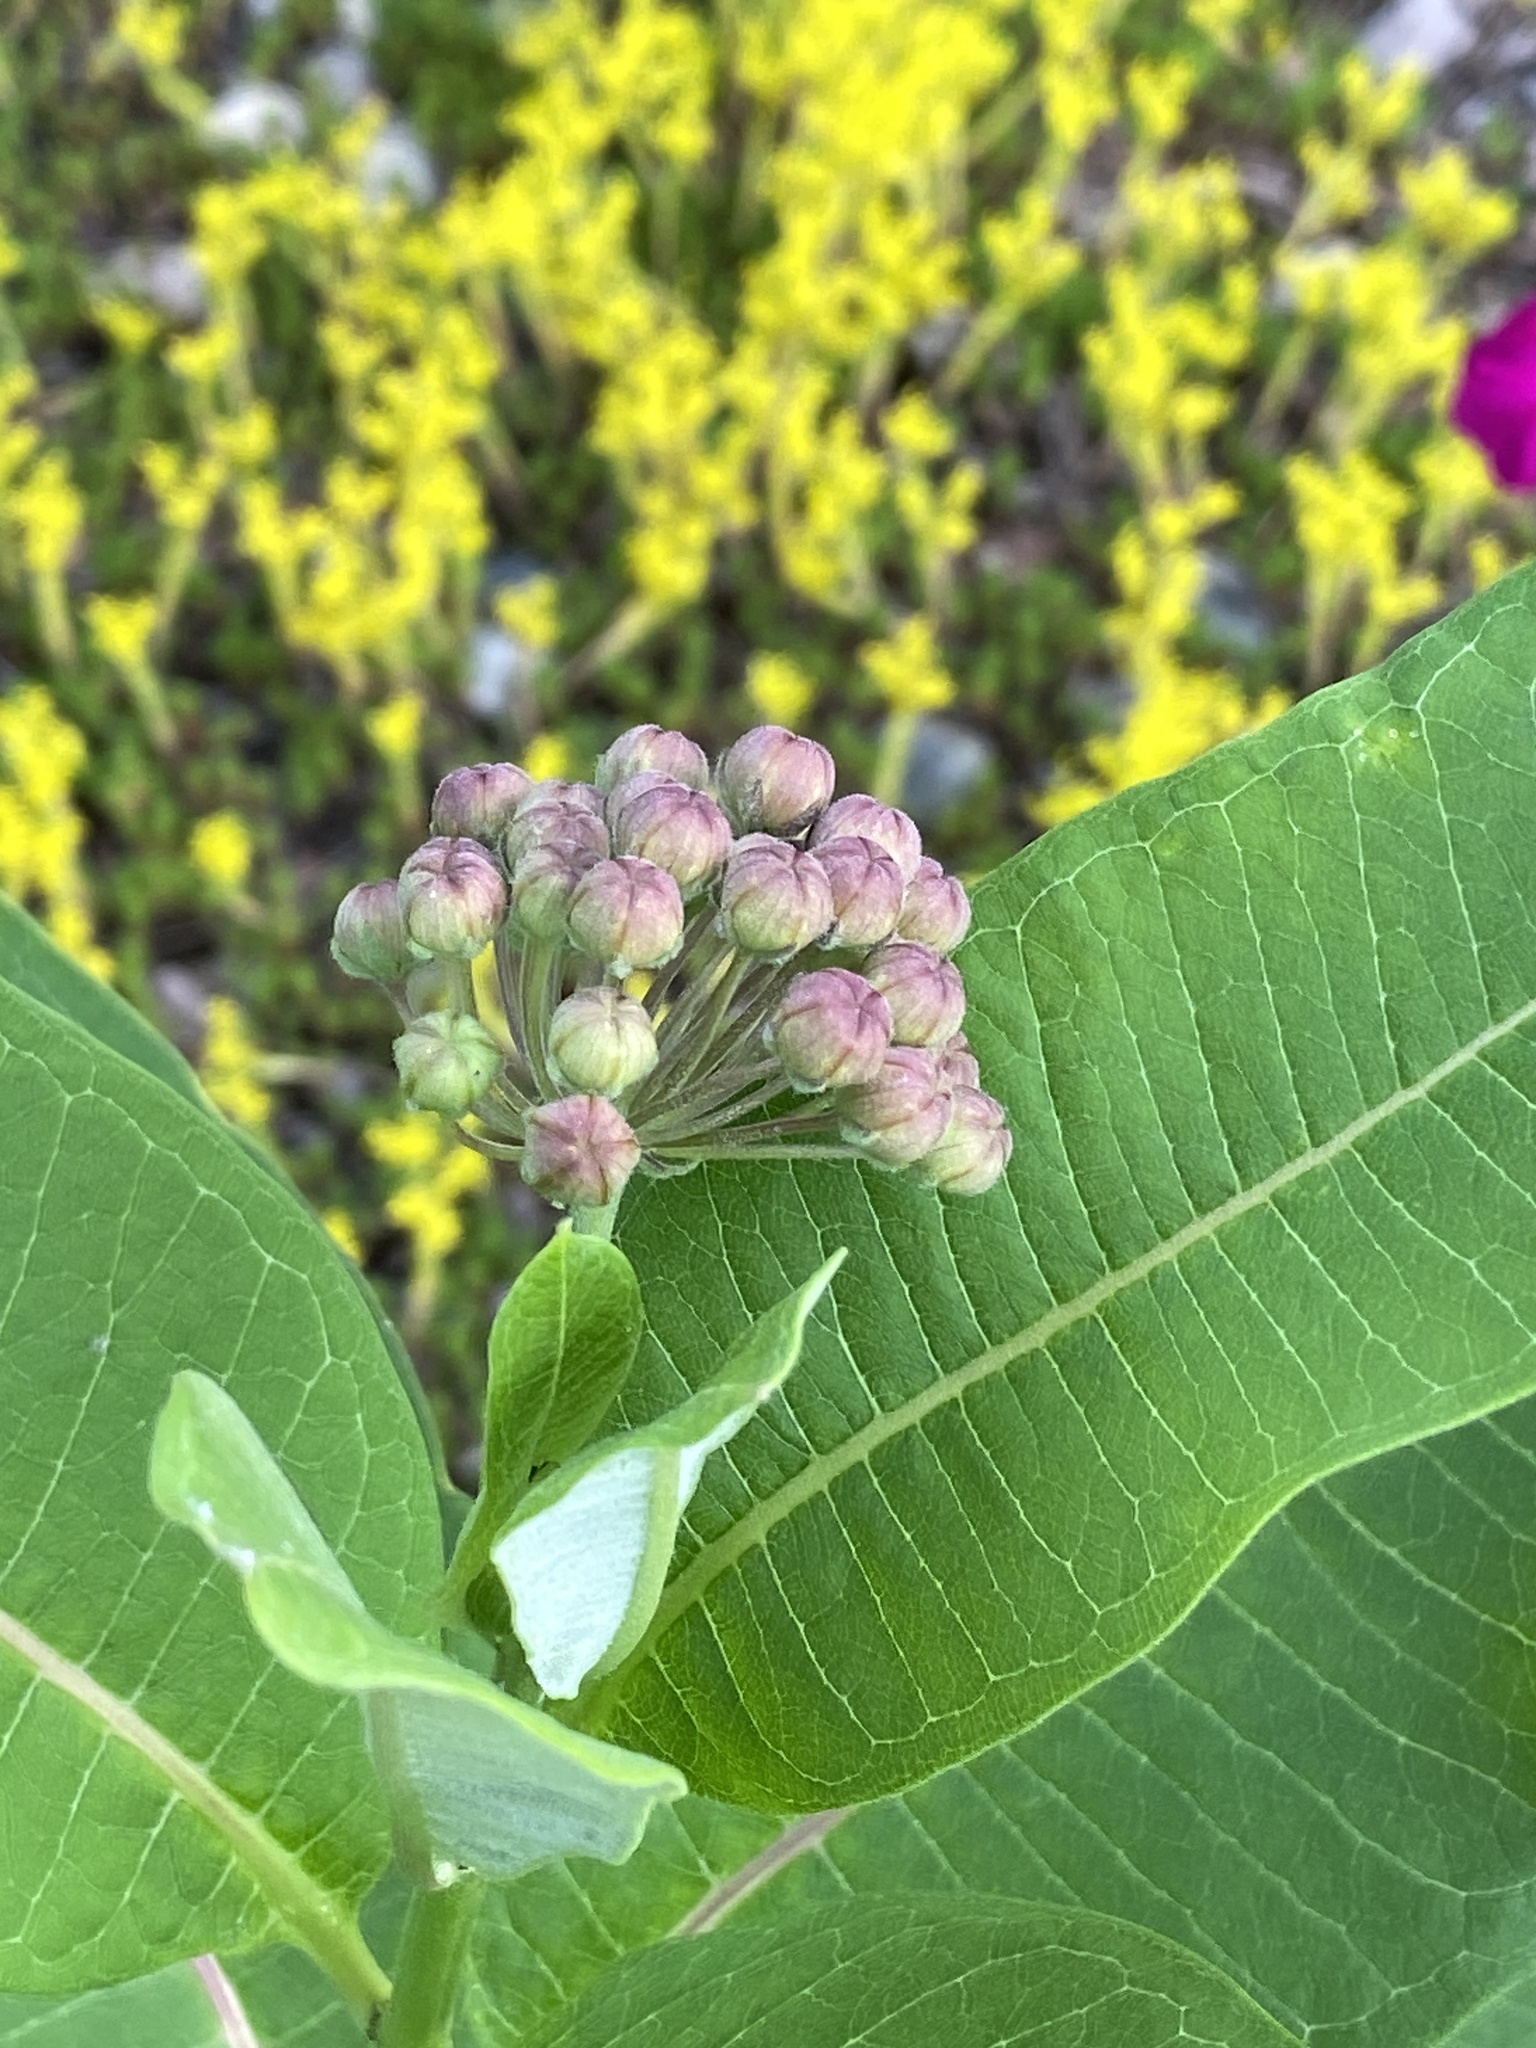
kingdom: Plantae
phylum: Tracheophyta
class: Magnoliopsida
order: Gentianales
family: Apocynaceae
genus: Asclepias
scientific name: Asclepias syriaca
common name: Common milkweed
